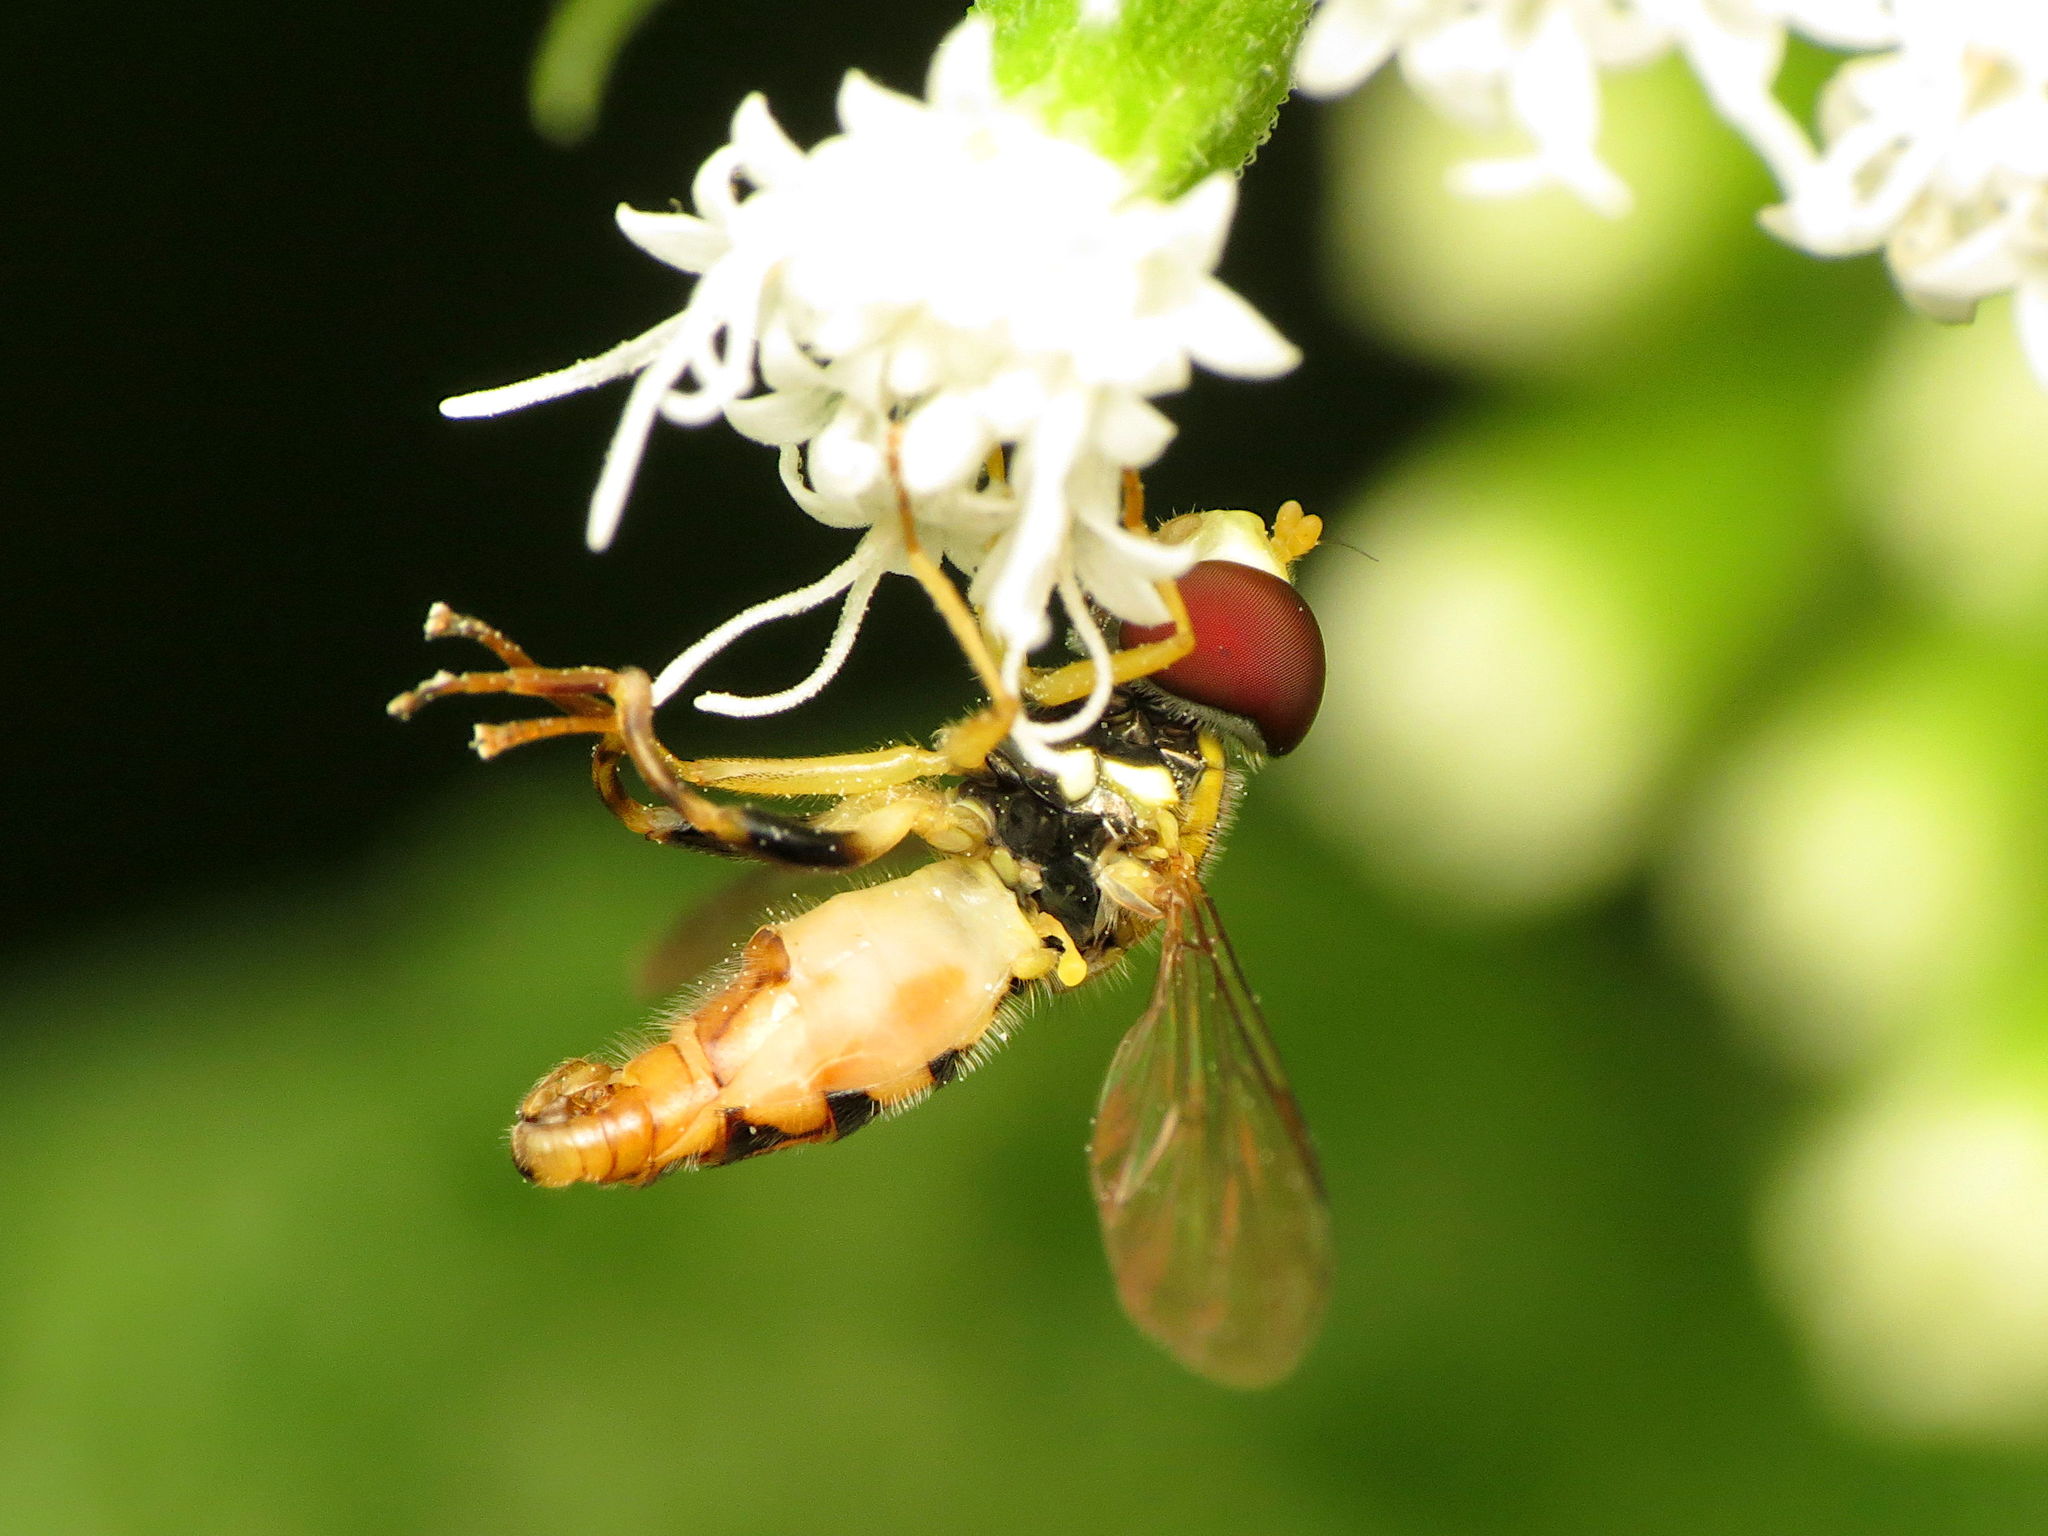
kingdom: Animalia
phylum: Arthropoda
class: Insecta
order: Diptera
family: Syrphidae
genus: Toxomerus
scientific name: Toxomerus geminatus
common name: Eastern calligrapher
